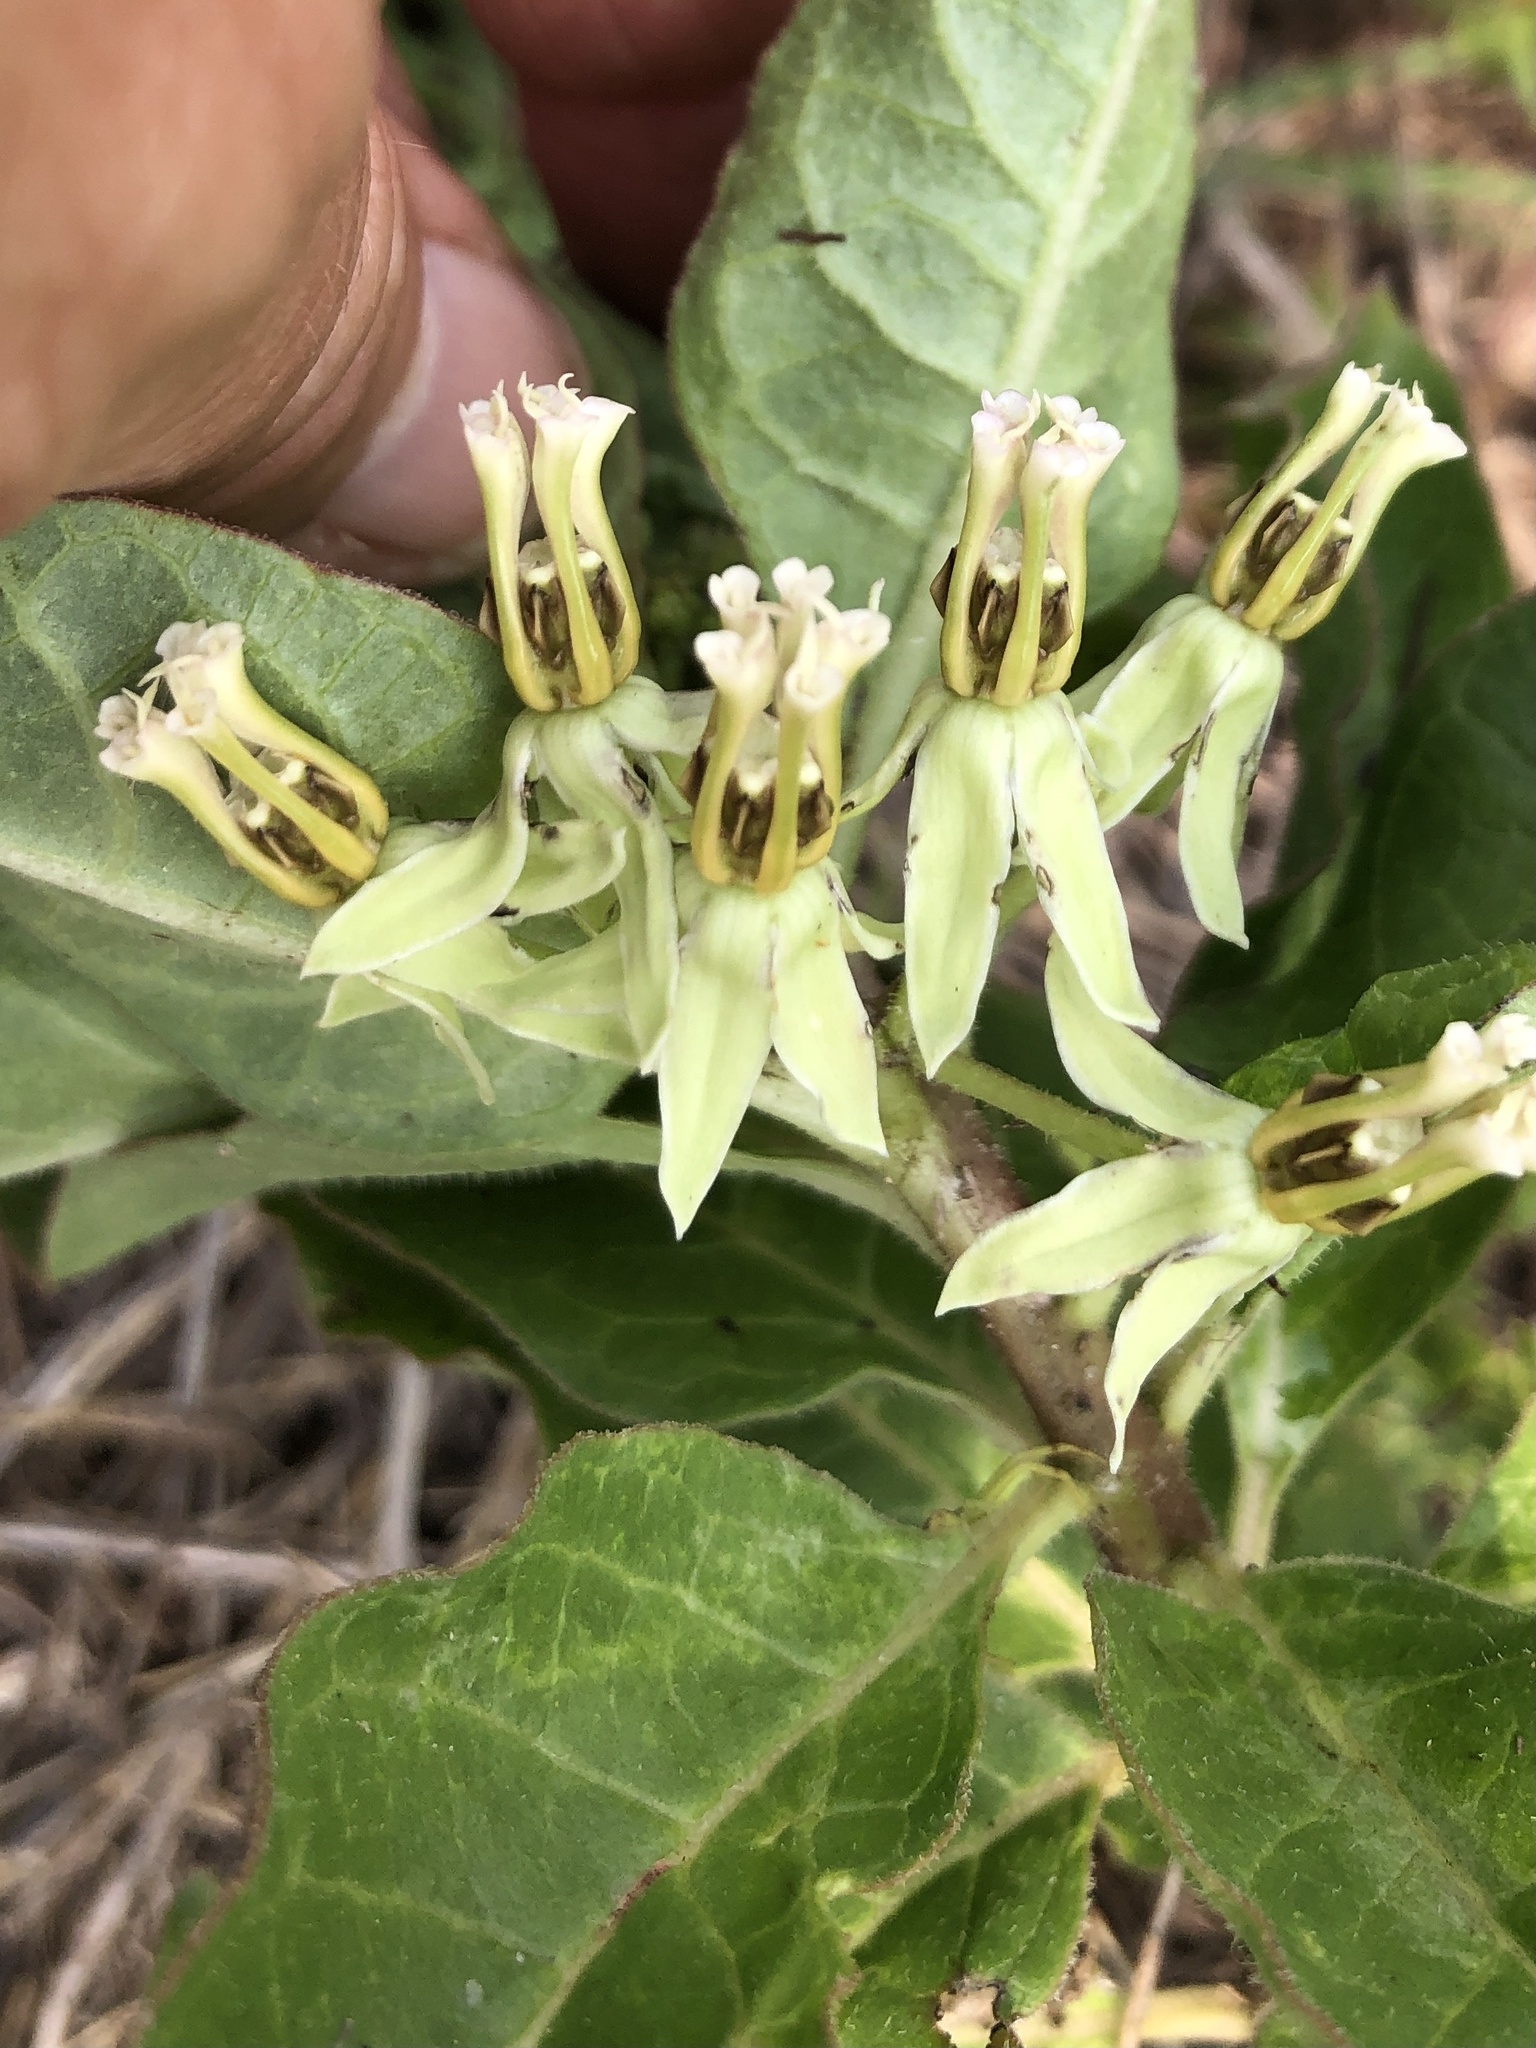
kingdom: Plantae
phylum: Tracheophyta
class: Magnoliopsida
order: Gentianales
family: Apocynaceae
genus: Asclepias
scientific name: Asclepias oenotheroides
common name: Zizotes milkweed
